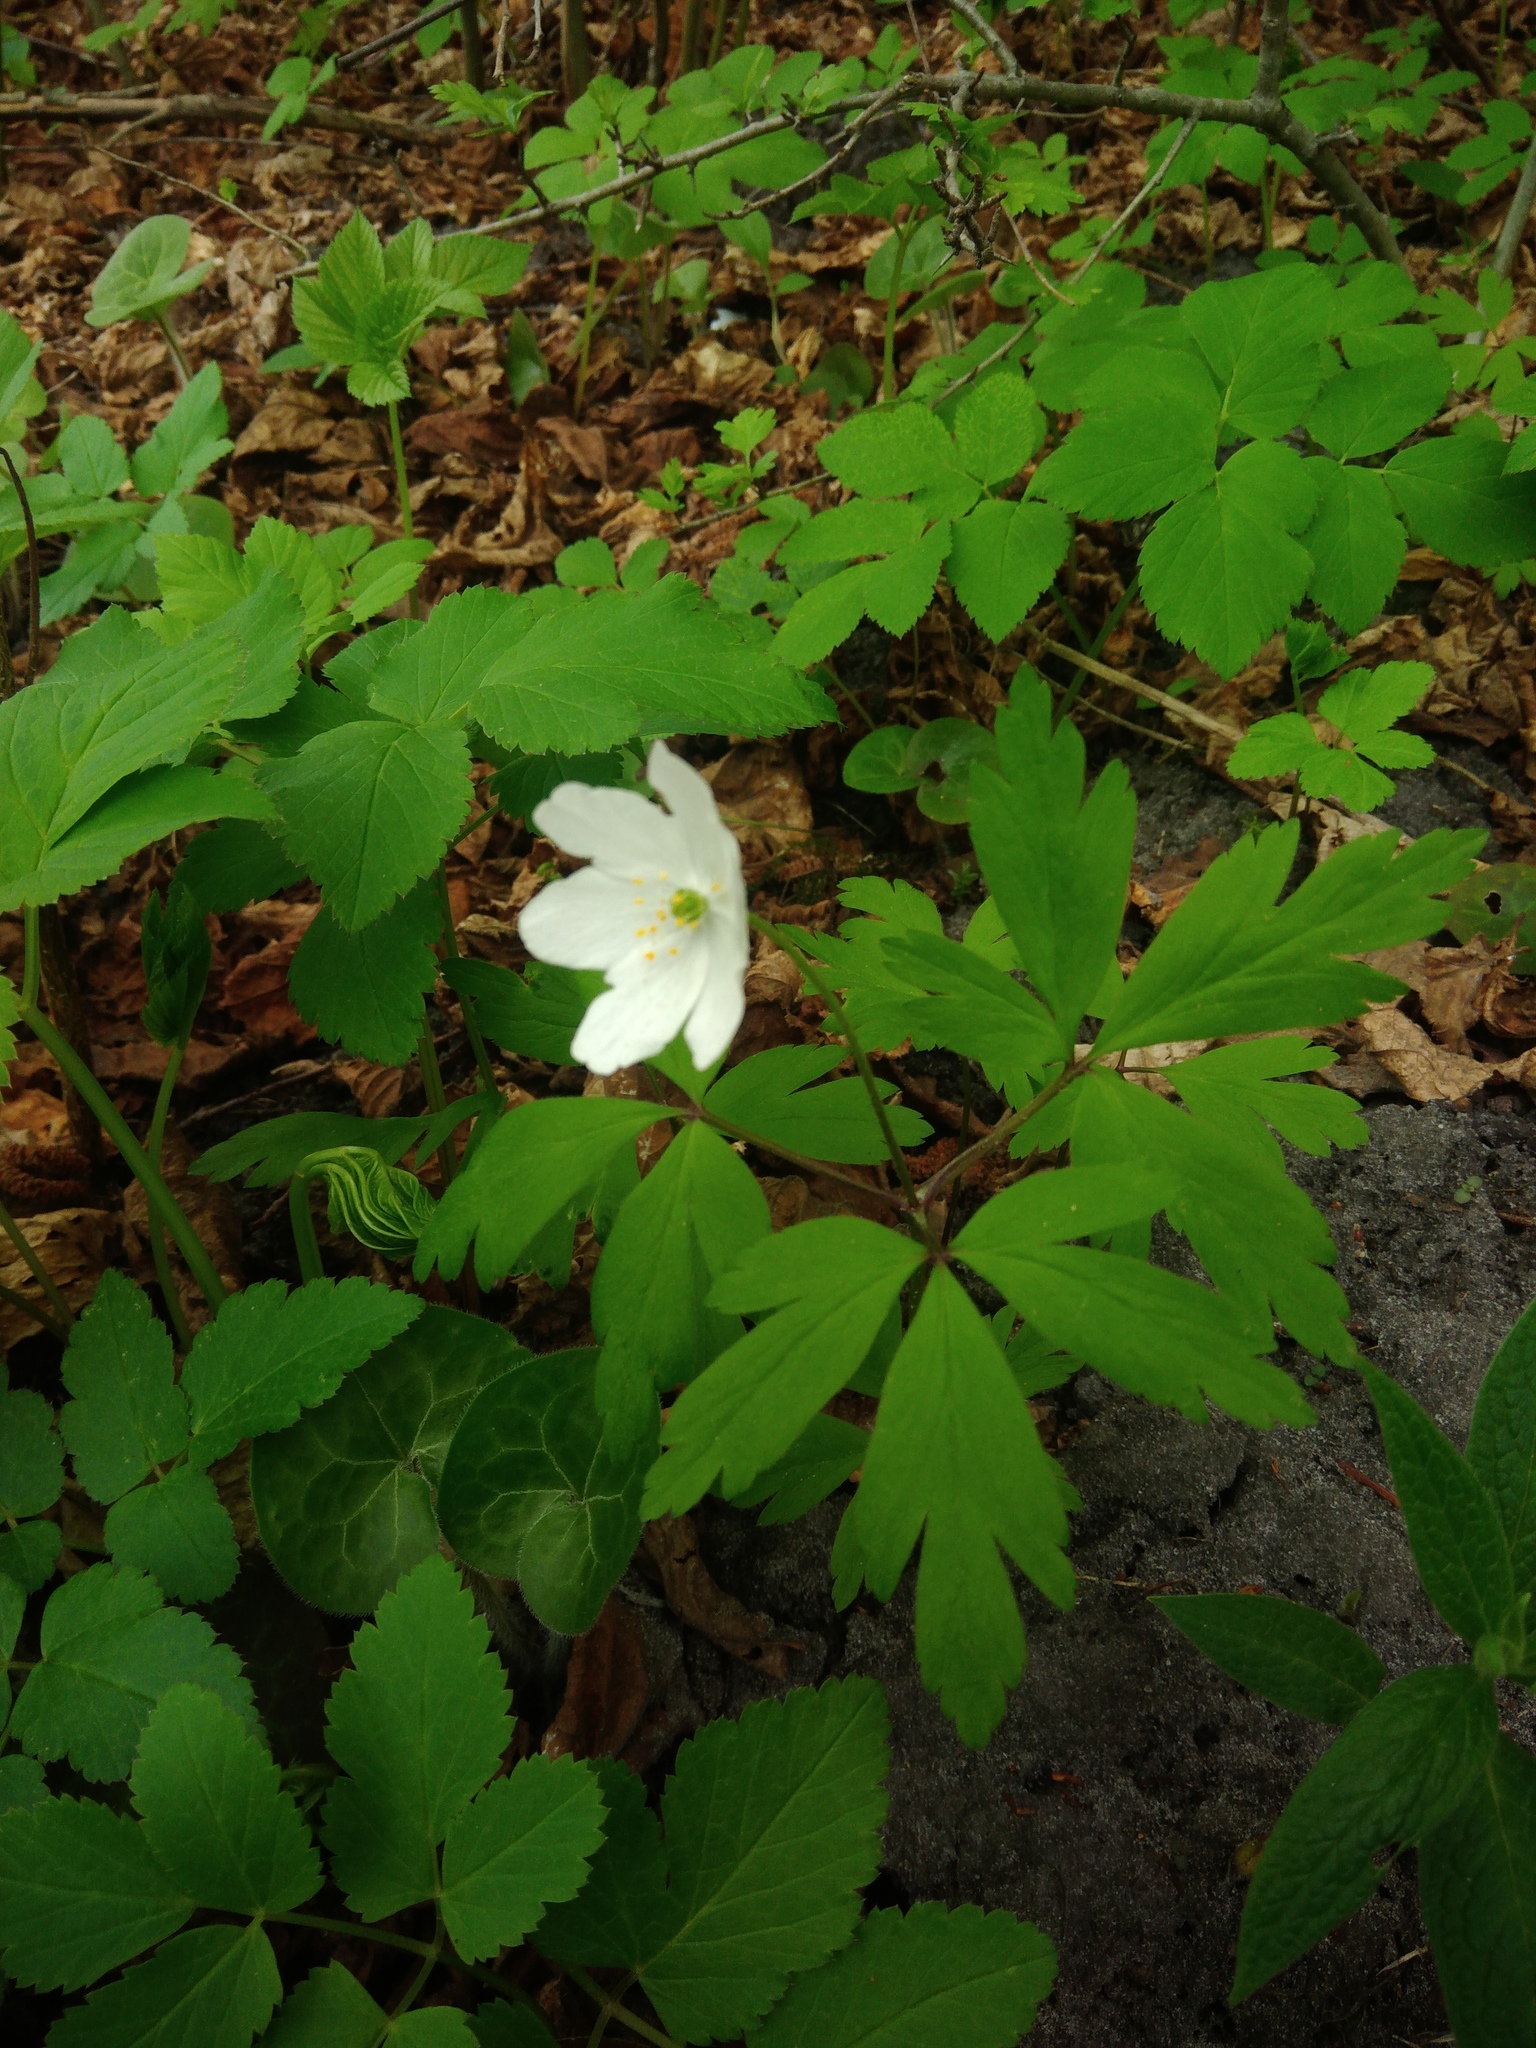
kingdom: Plantae
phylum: Tracheophyta
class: Magnoliopsida
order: Ranunculales
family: Ranunculaceae
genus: Anemone
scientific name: Anemone nemorosa
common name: Wood anemone
